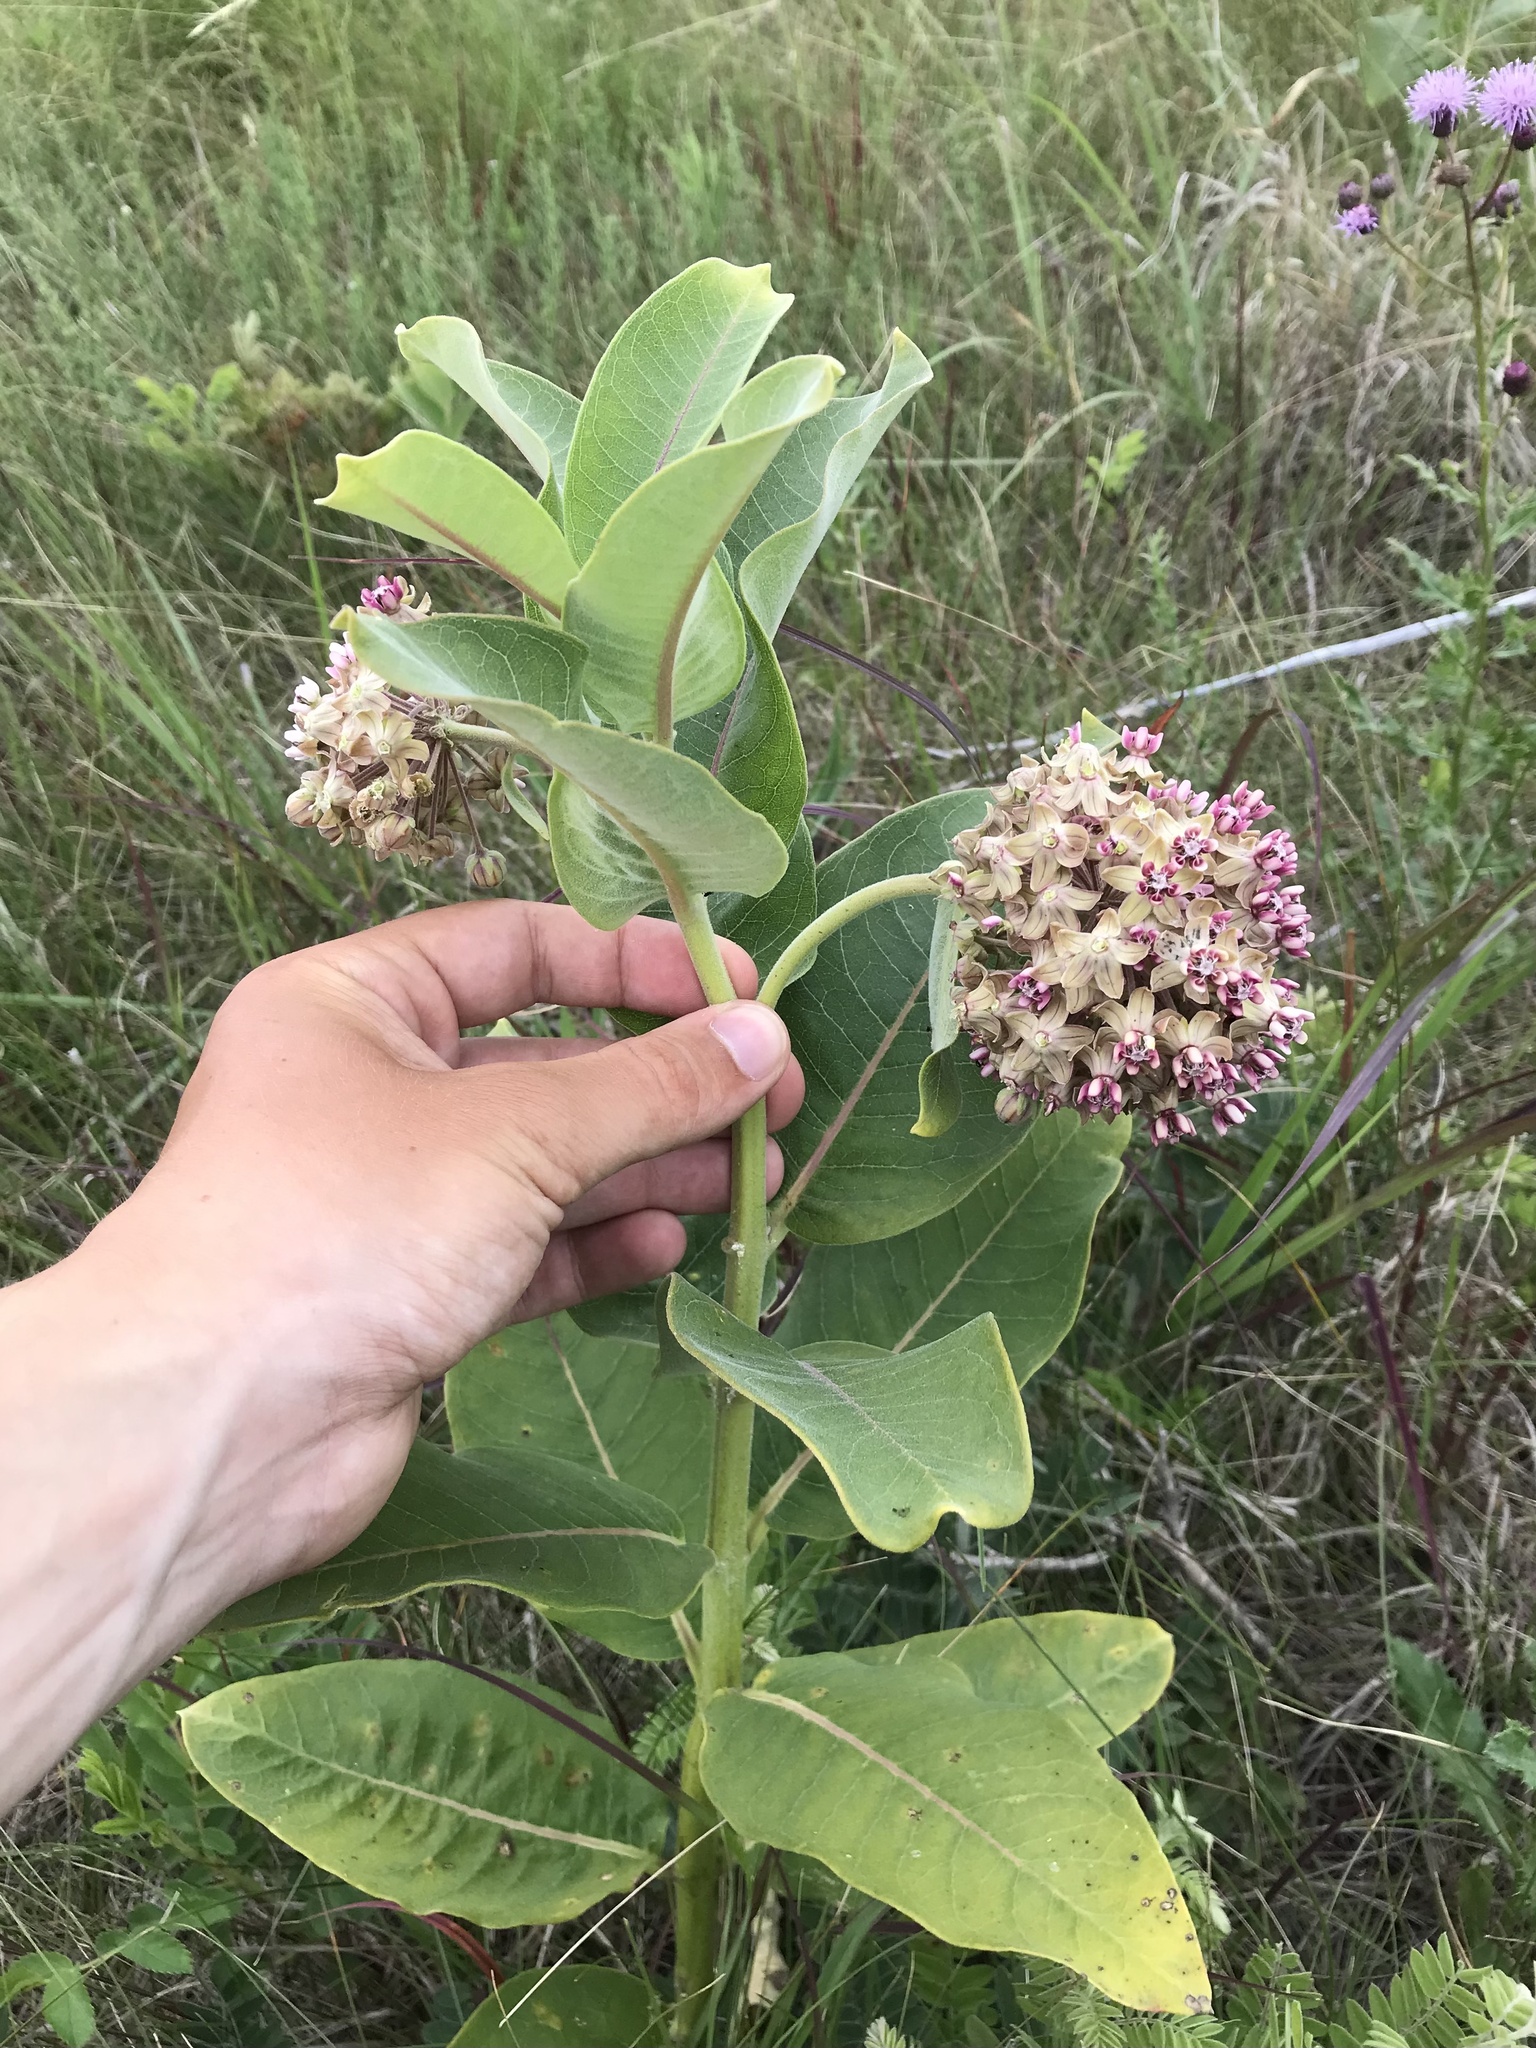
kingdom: Plantae
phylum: Tracheophyta
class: Magnoliopsida
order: Gentianales
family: Apocynaceae
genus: Asclepias
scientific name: Asclepias syriaca
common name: Common milkweed
